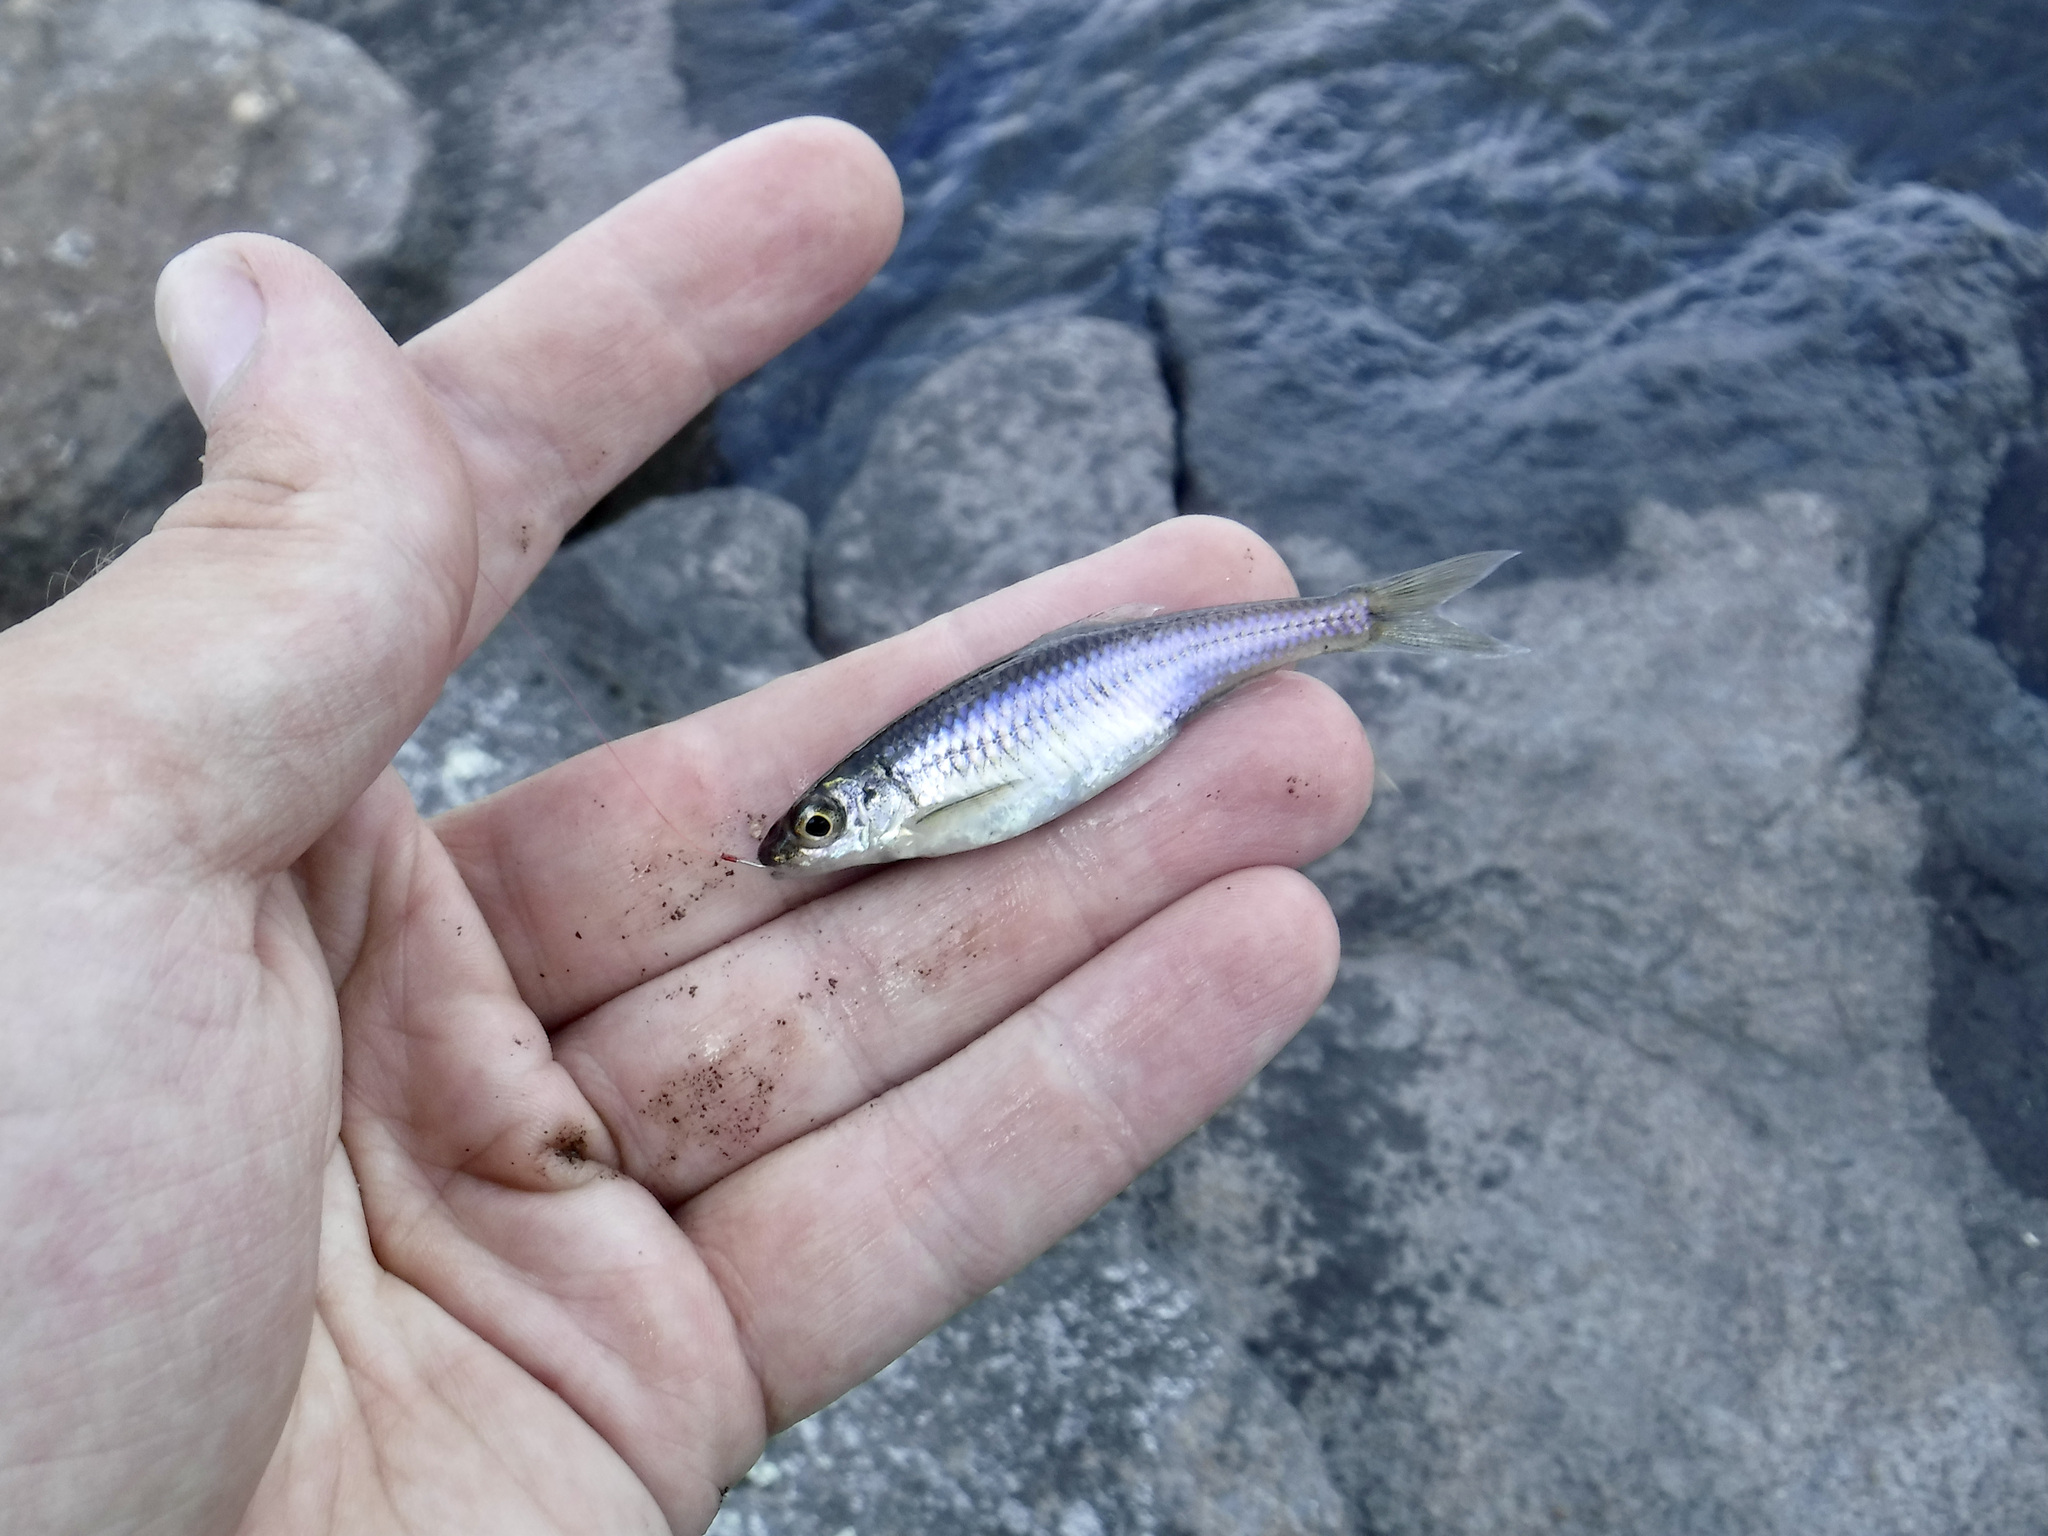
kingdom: Animalia
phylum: Chordata
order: Cypriniformes
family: Cyprinidae
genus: Notropis
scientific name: Notropis
